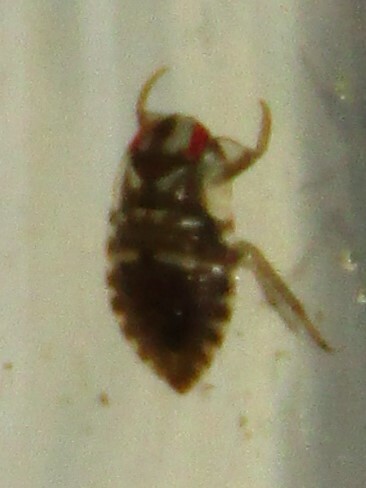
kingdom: Animalia
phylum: Arthropoda
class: Insecta
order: Hemiptera
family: Naucoridae
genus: Pelocoris
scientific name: Pelocoris
